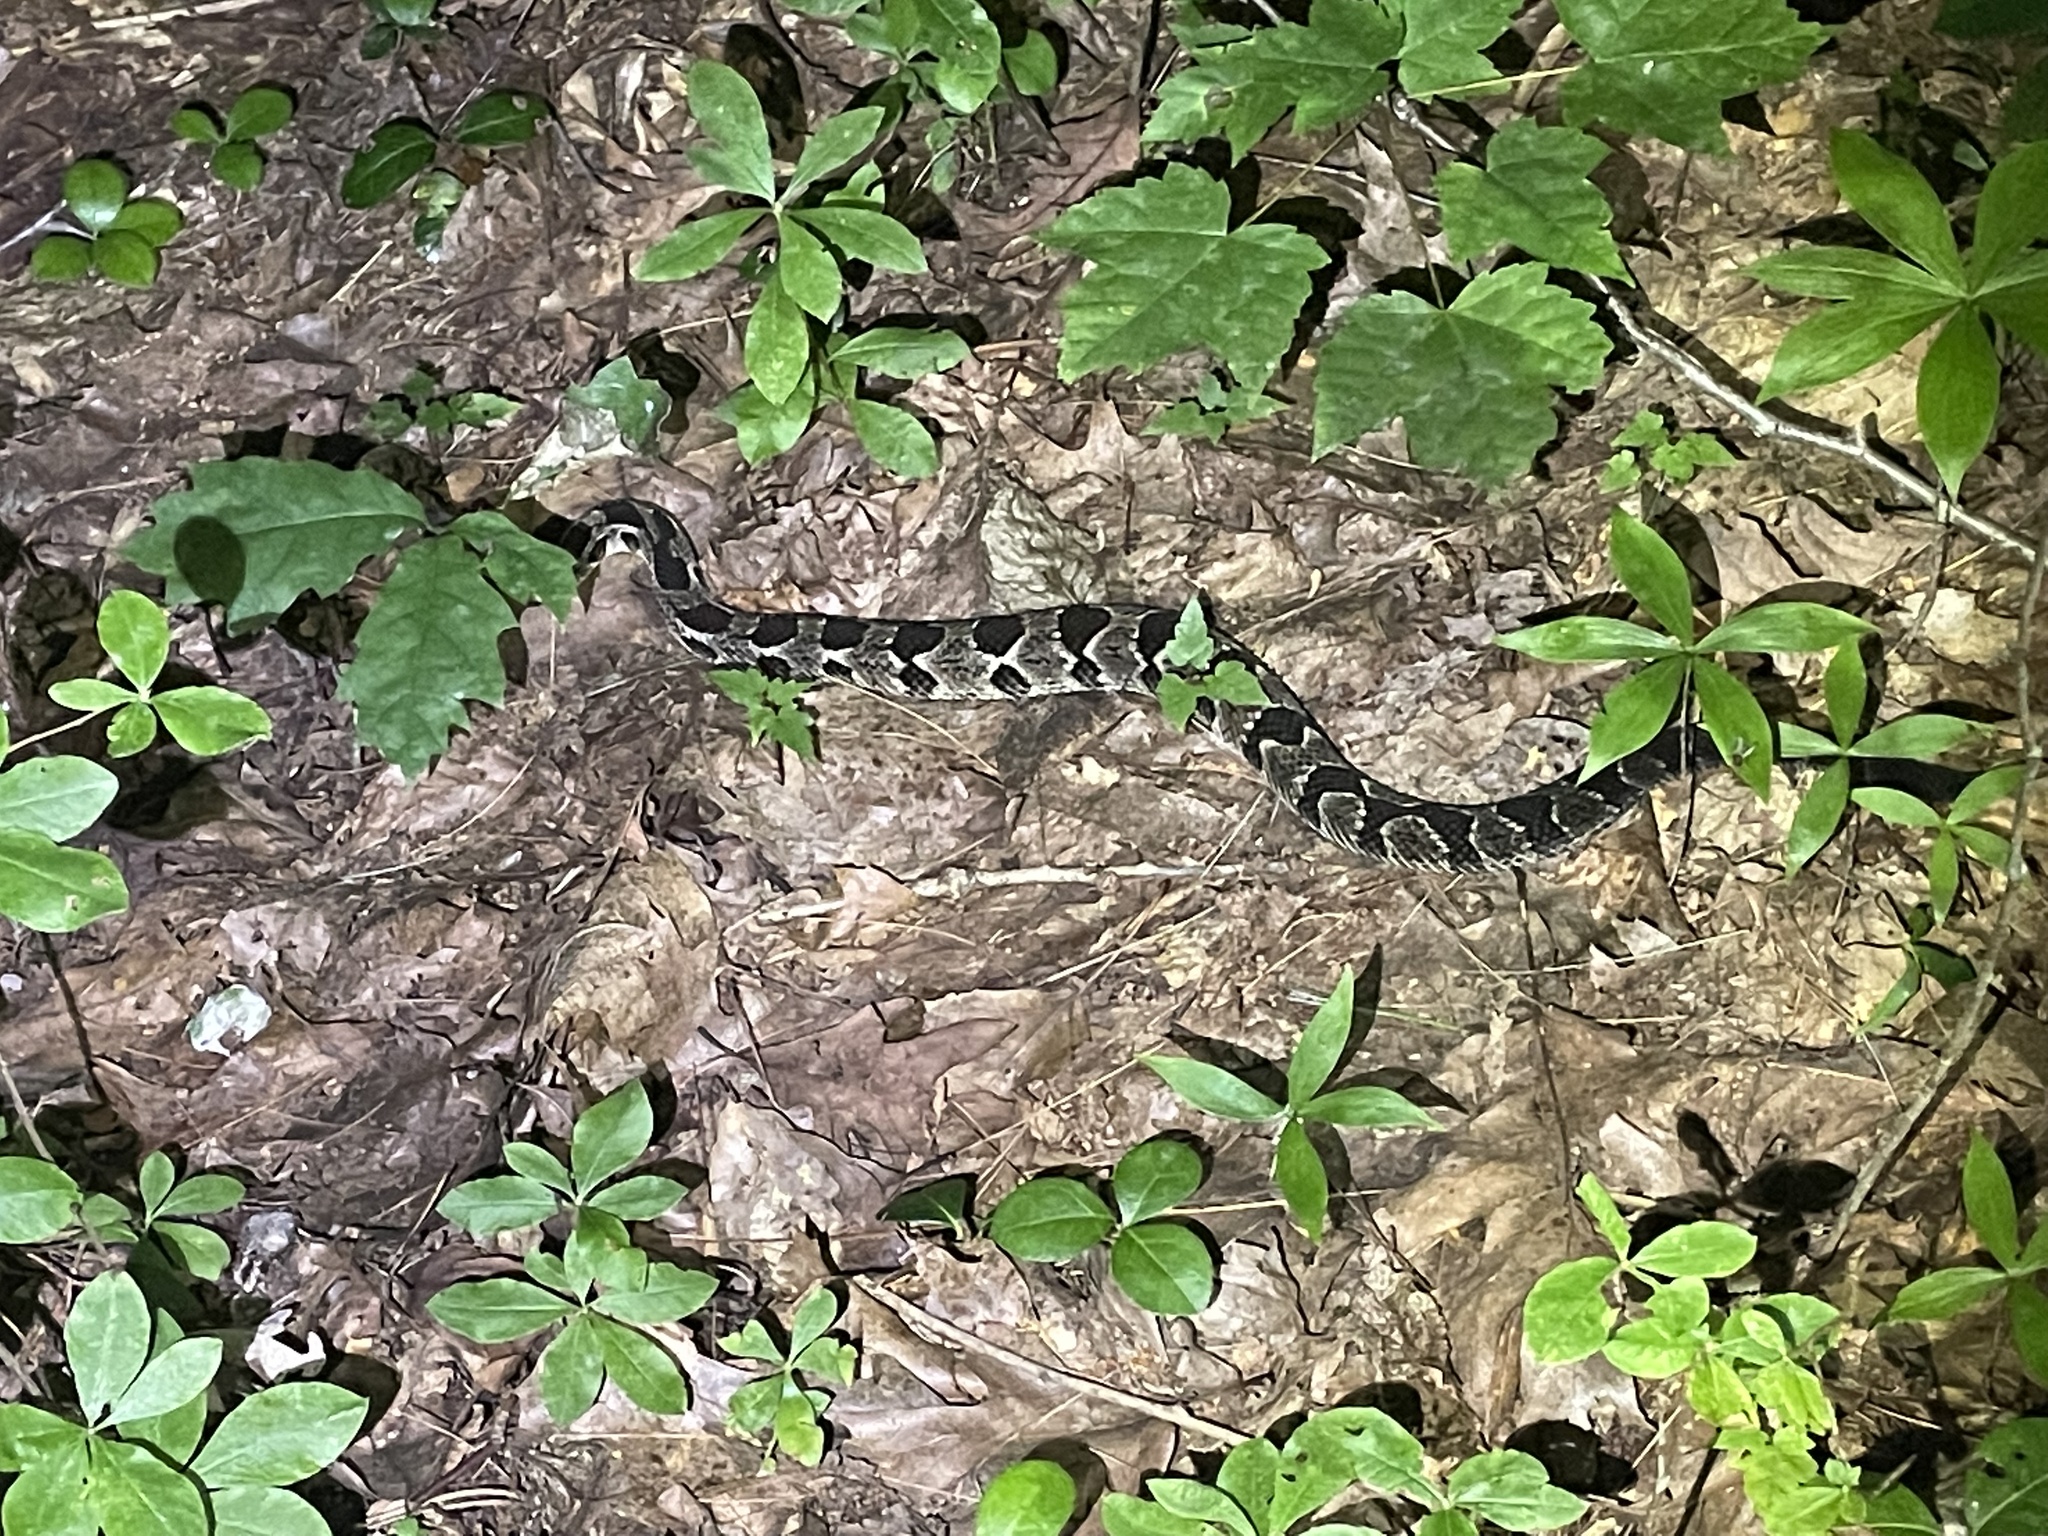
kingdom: Animalia
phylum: Chordata
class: Squamata
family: Viperidae
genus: Crotalus
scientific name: Crotalus horridus
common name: Timber rattlesnake
